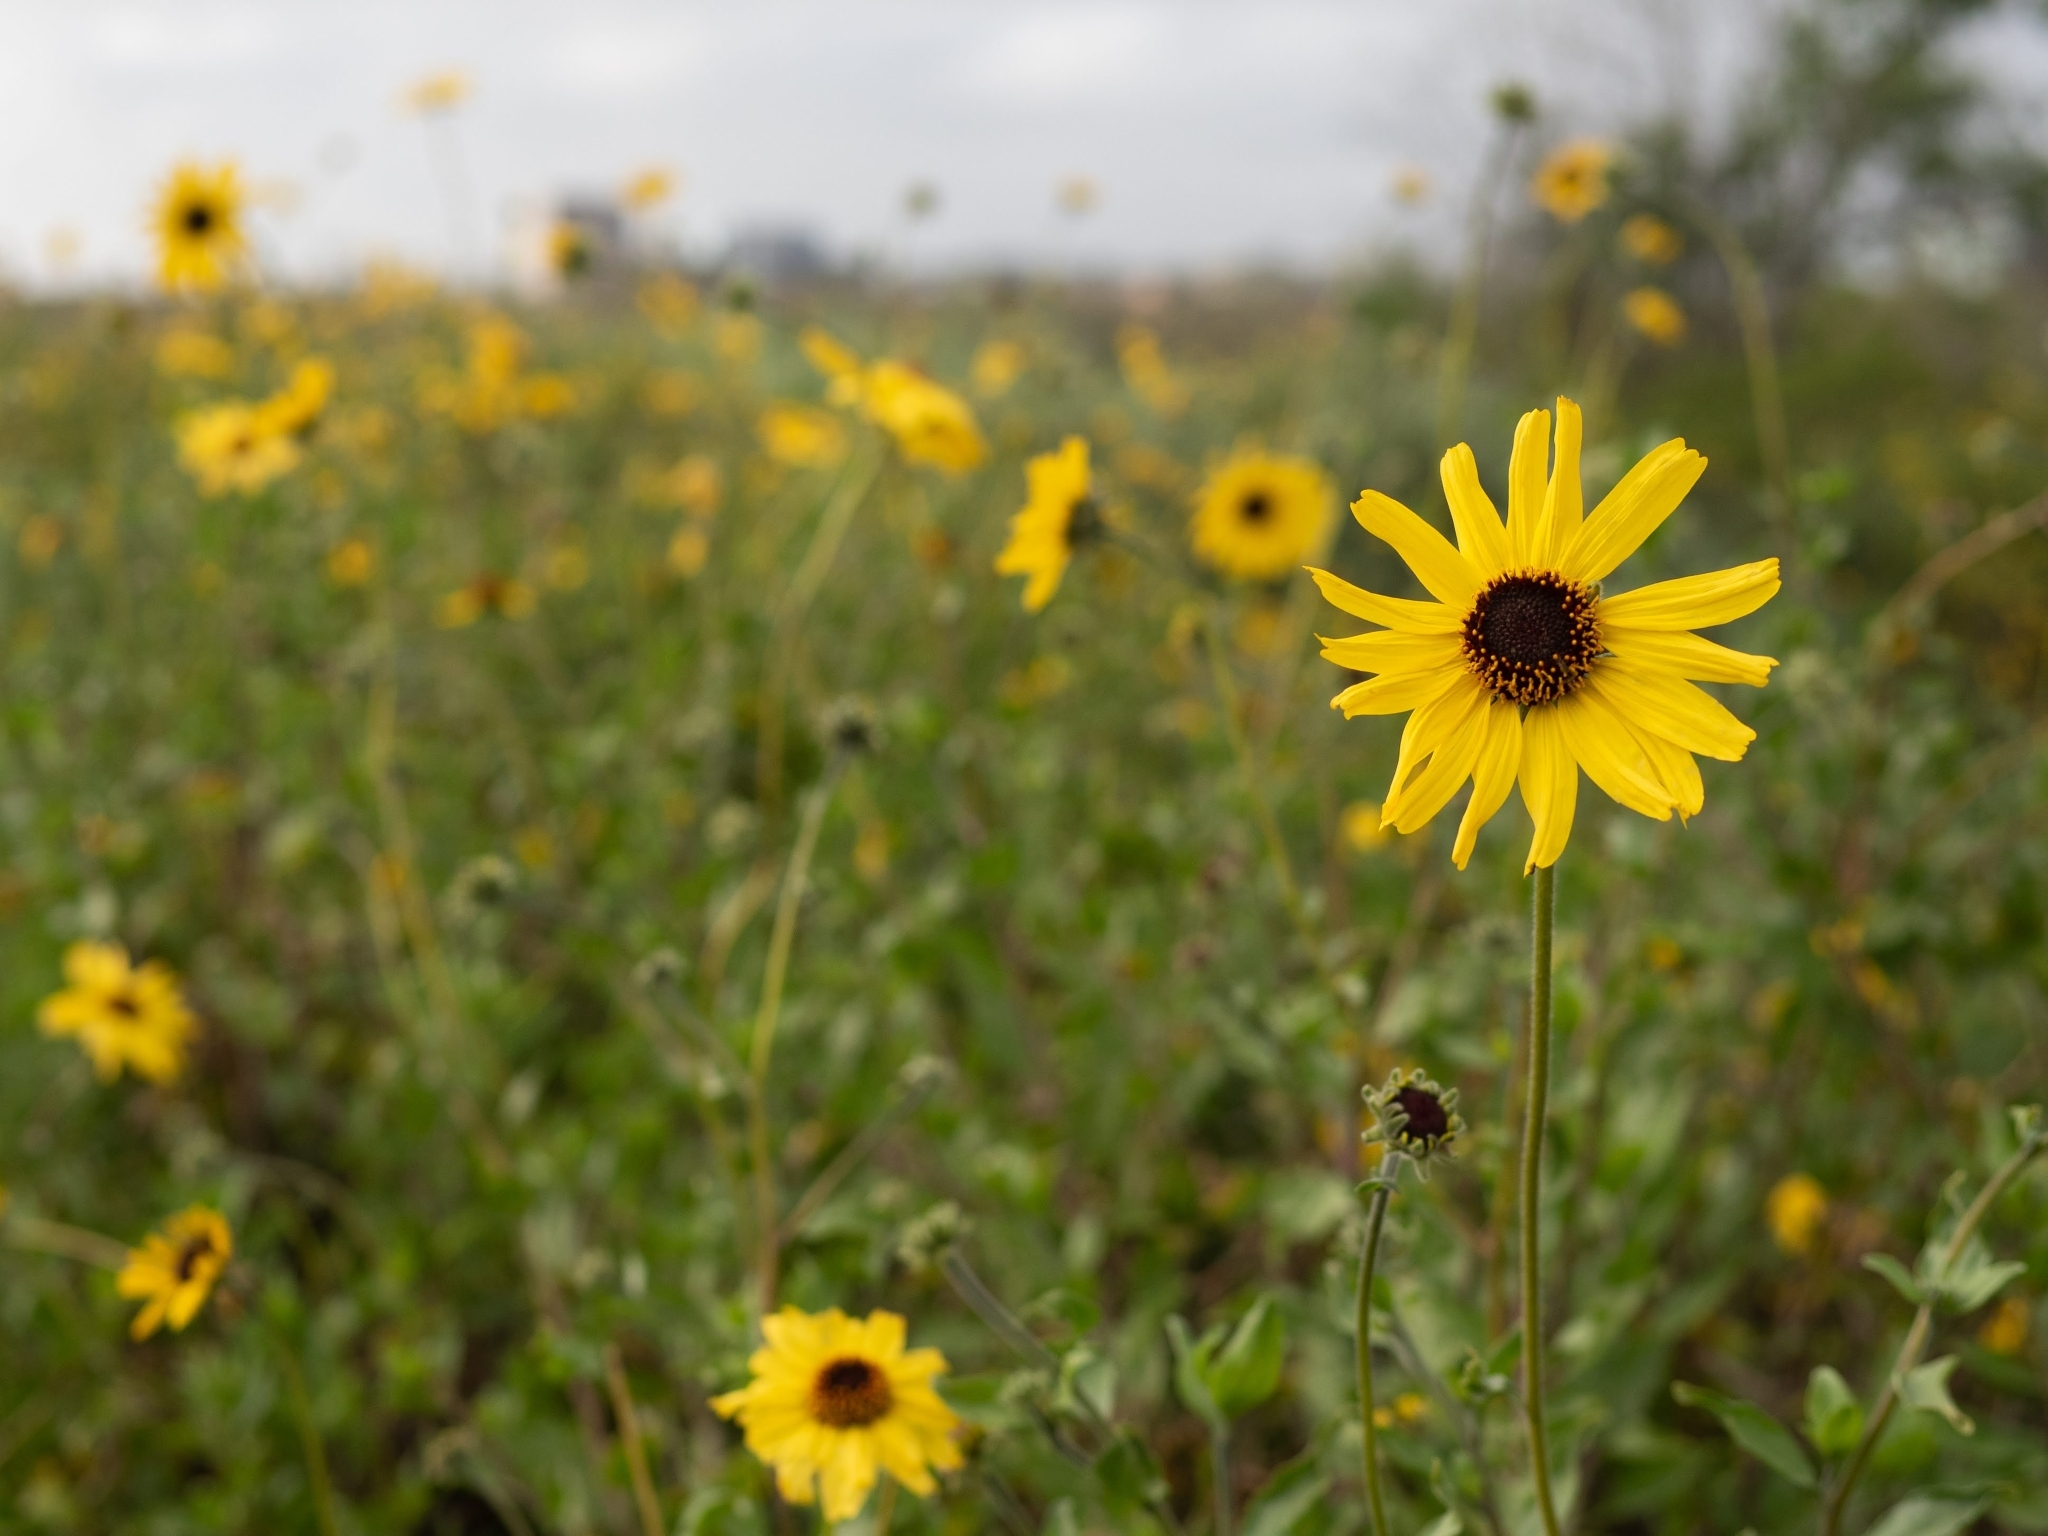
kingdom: Plantae
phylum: Tracheophyta
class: Magnoliopsida
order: Asterales
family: Asteraceae
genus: Encelia
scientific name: Encelia californica
